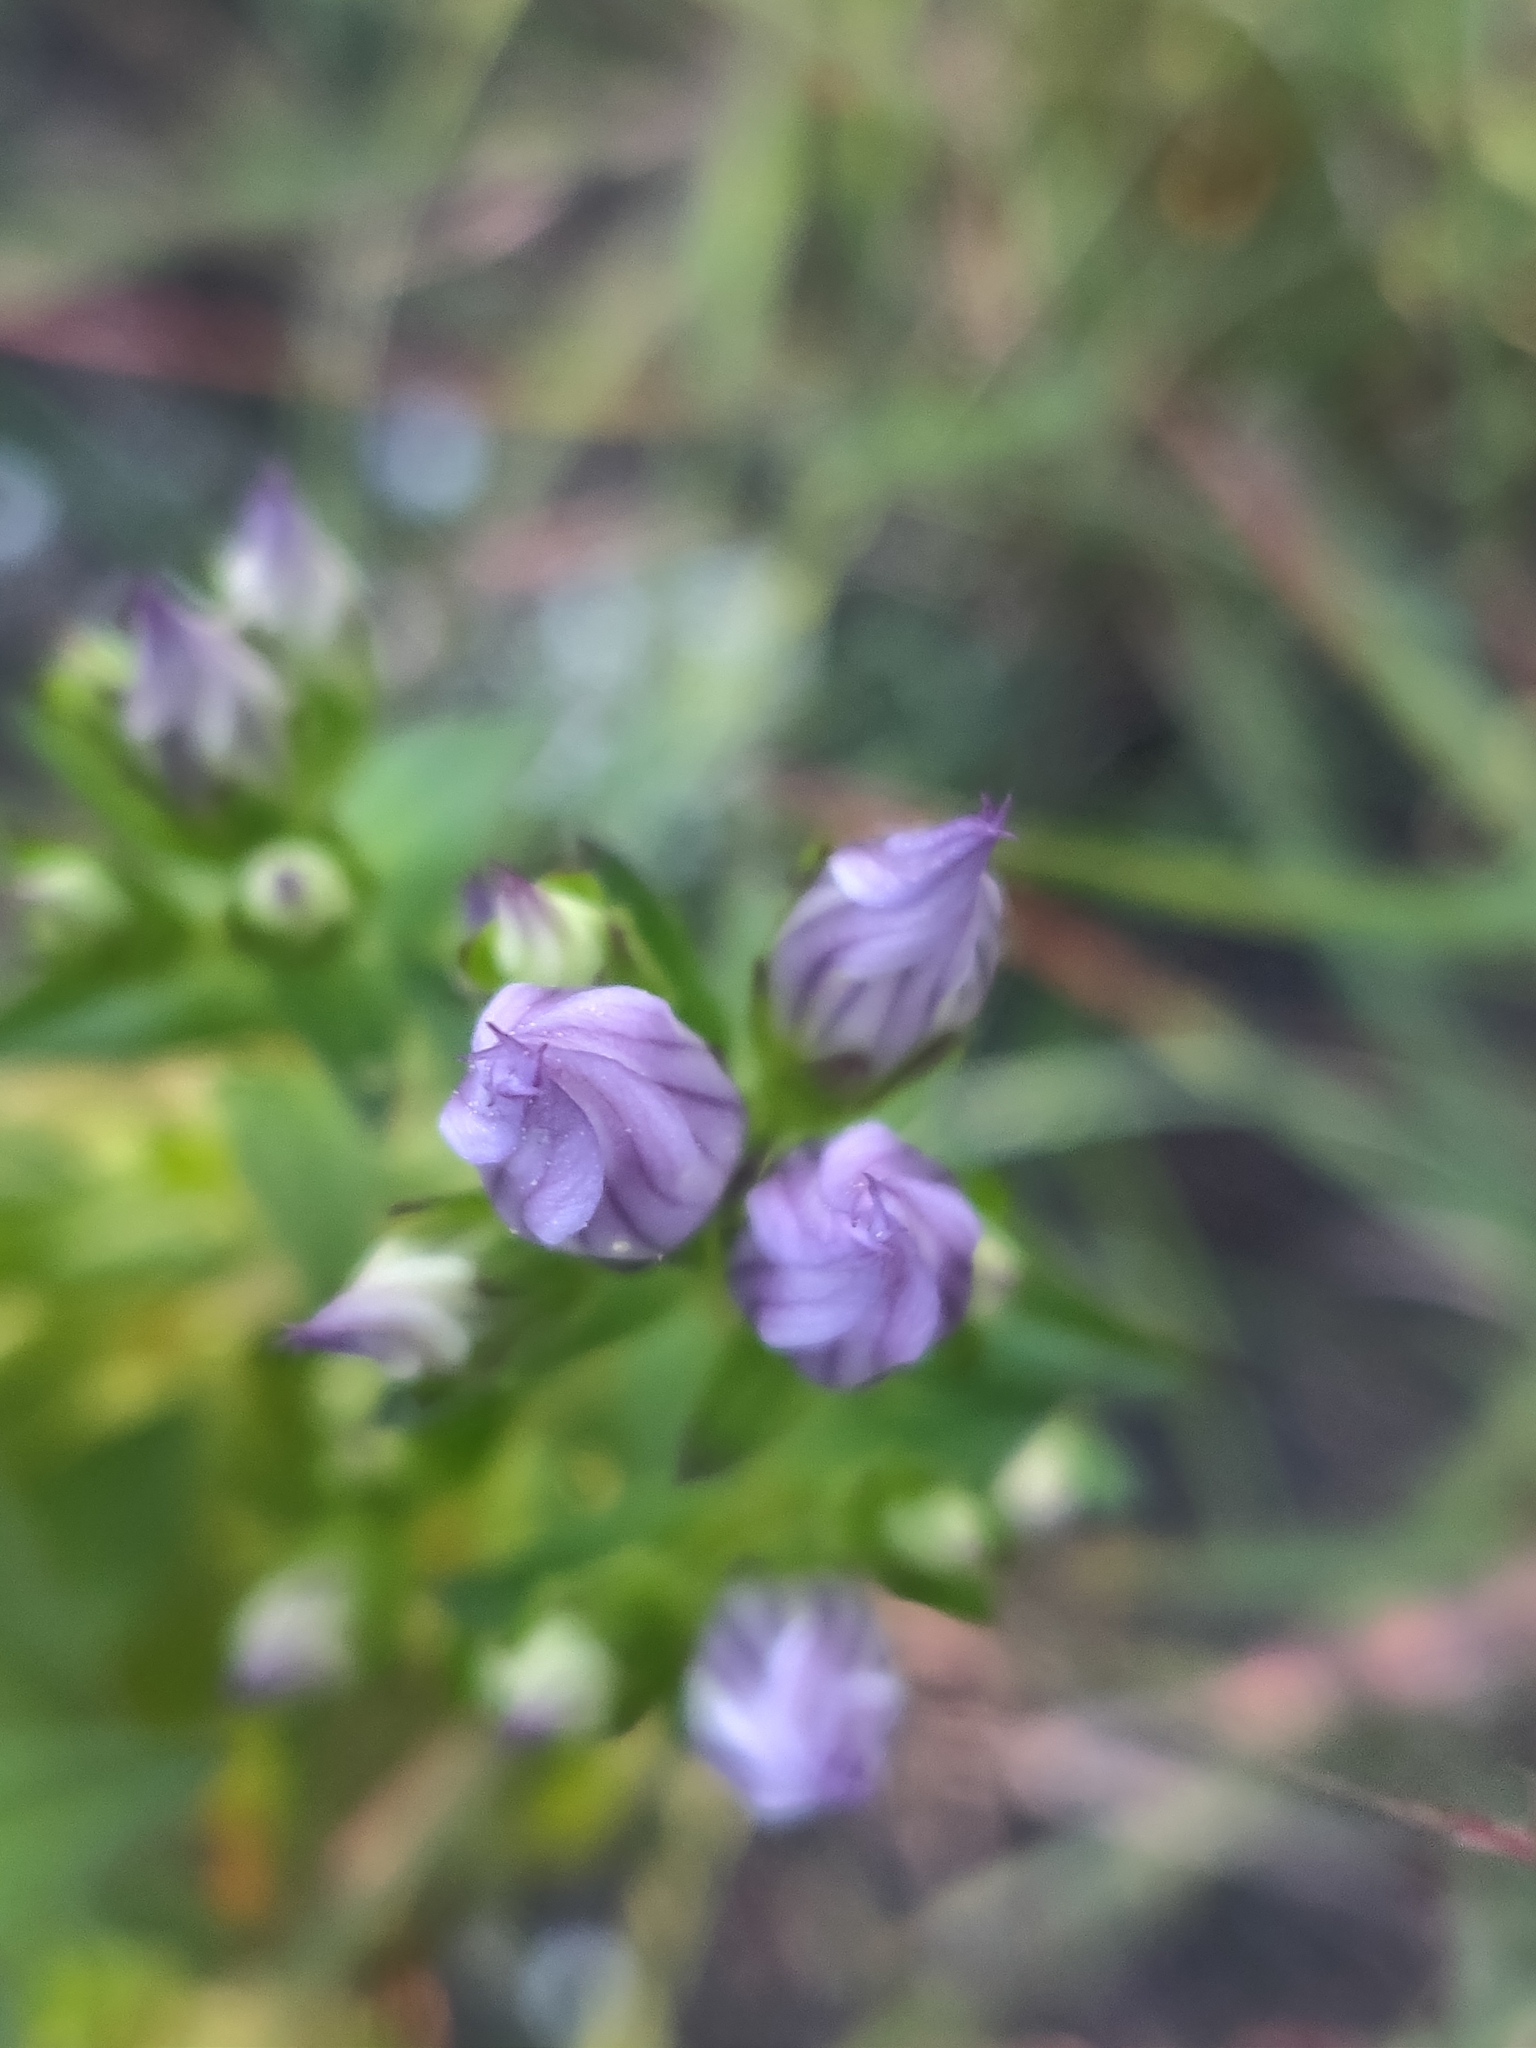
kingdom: Plantae
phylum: Tracheophyta
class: Magnoliopsida
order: Gentianales
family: Gentianaceae
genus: Gentianella
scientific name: Gentianella quinquefolia
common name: Agueweed
